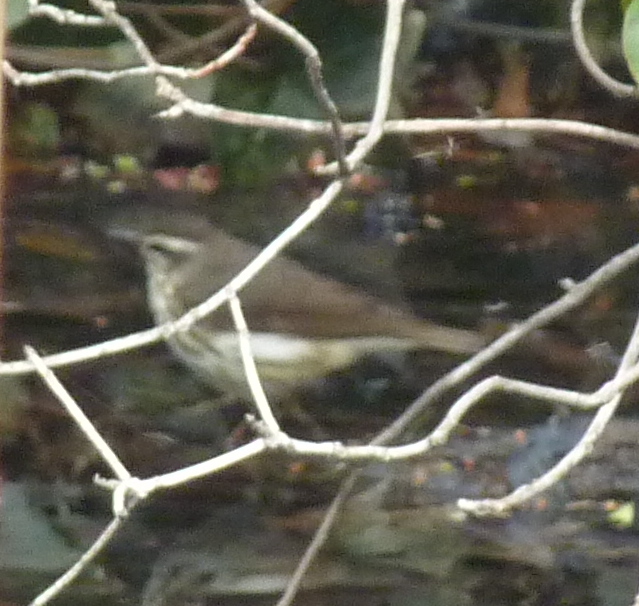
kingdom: Animalia
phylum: Chordata
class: Aves
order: Passeriformes
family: Parulidae
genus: Parkesia
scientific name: Parkesia motacilla
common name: Louisiana waterthrush
